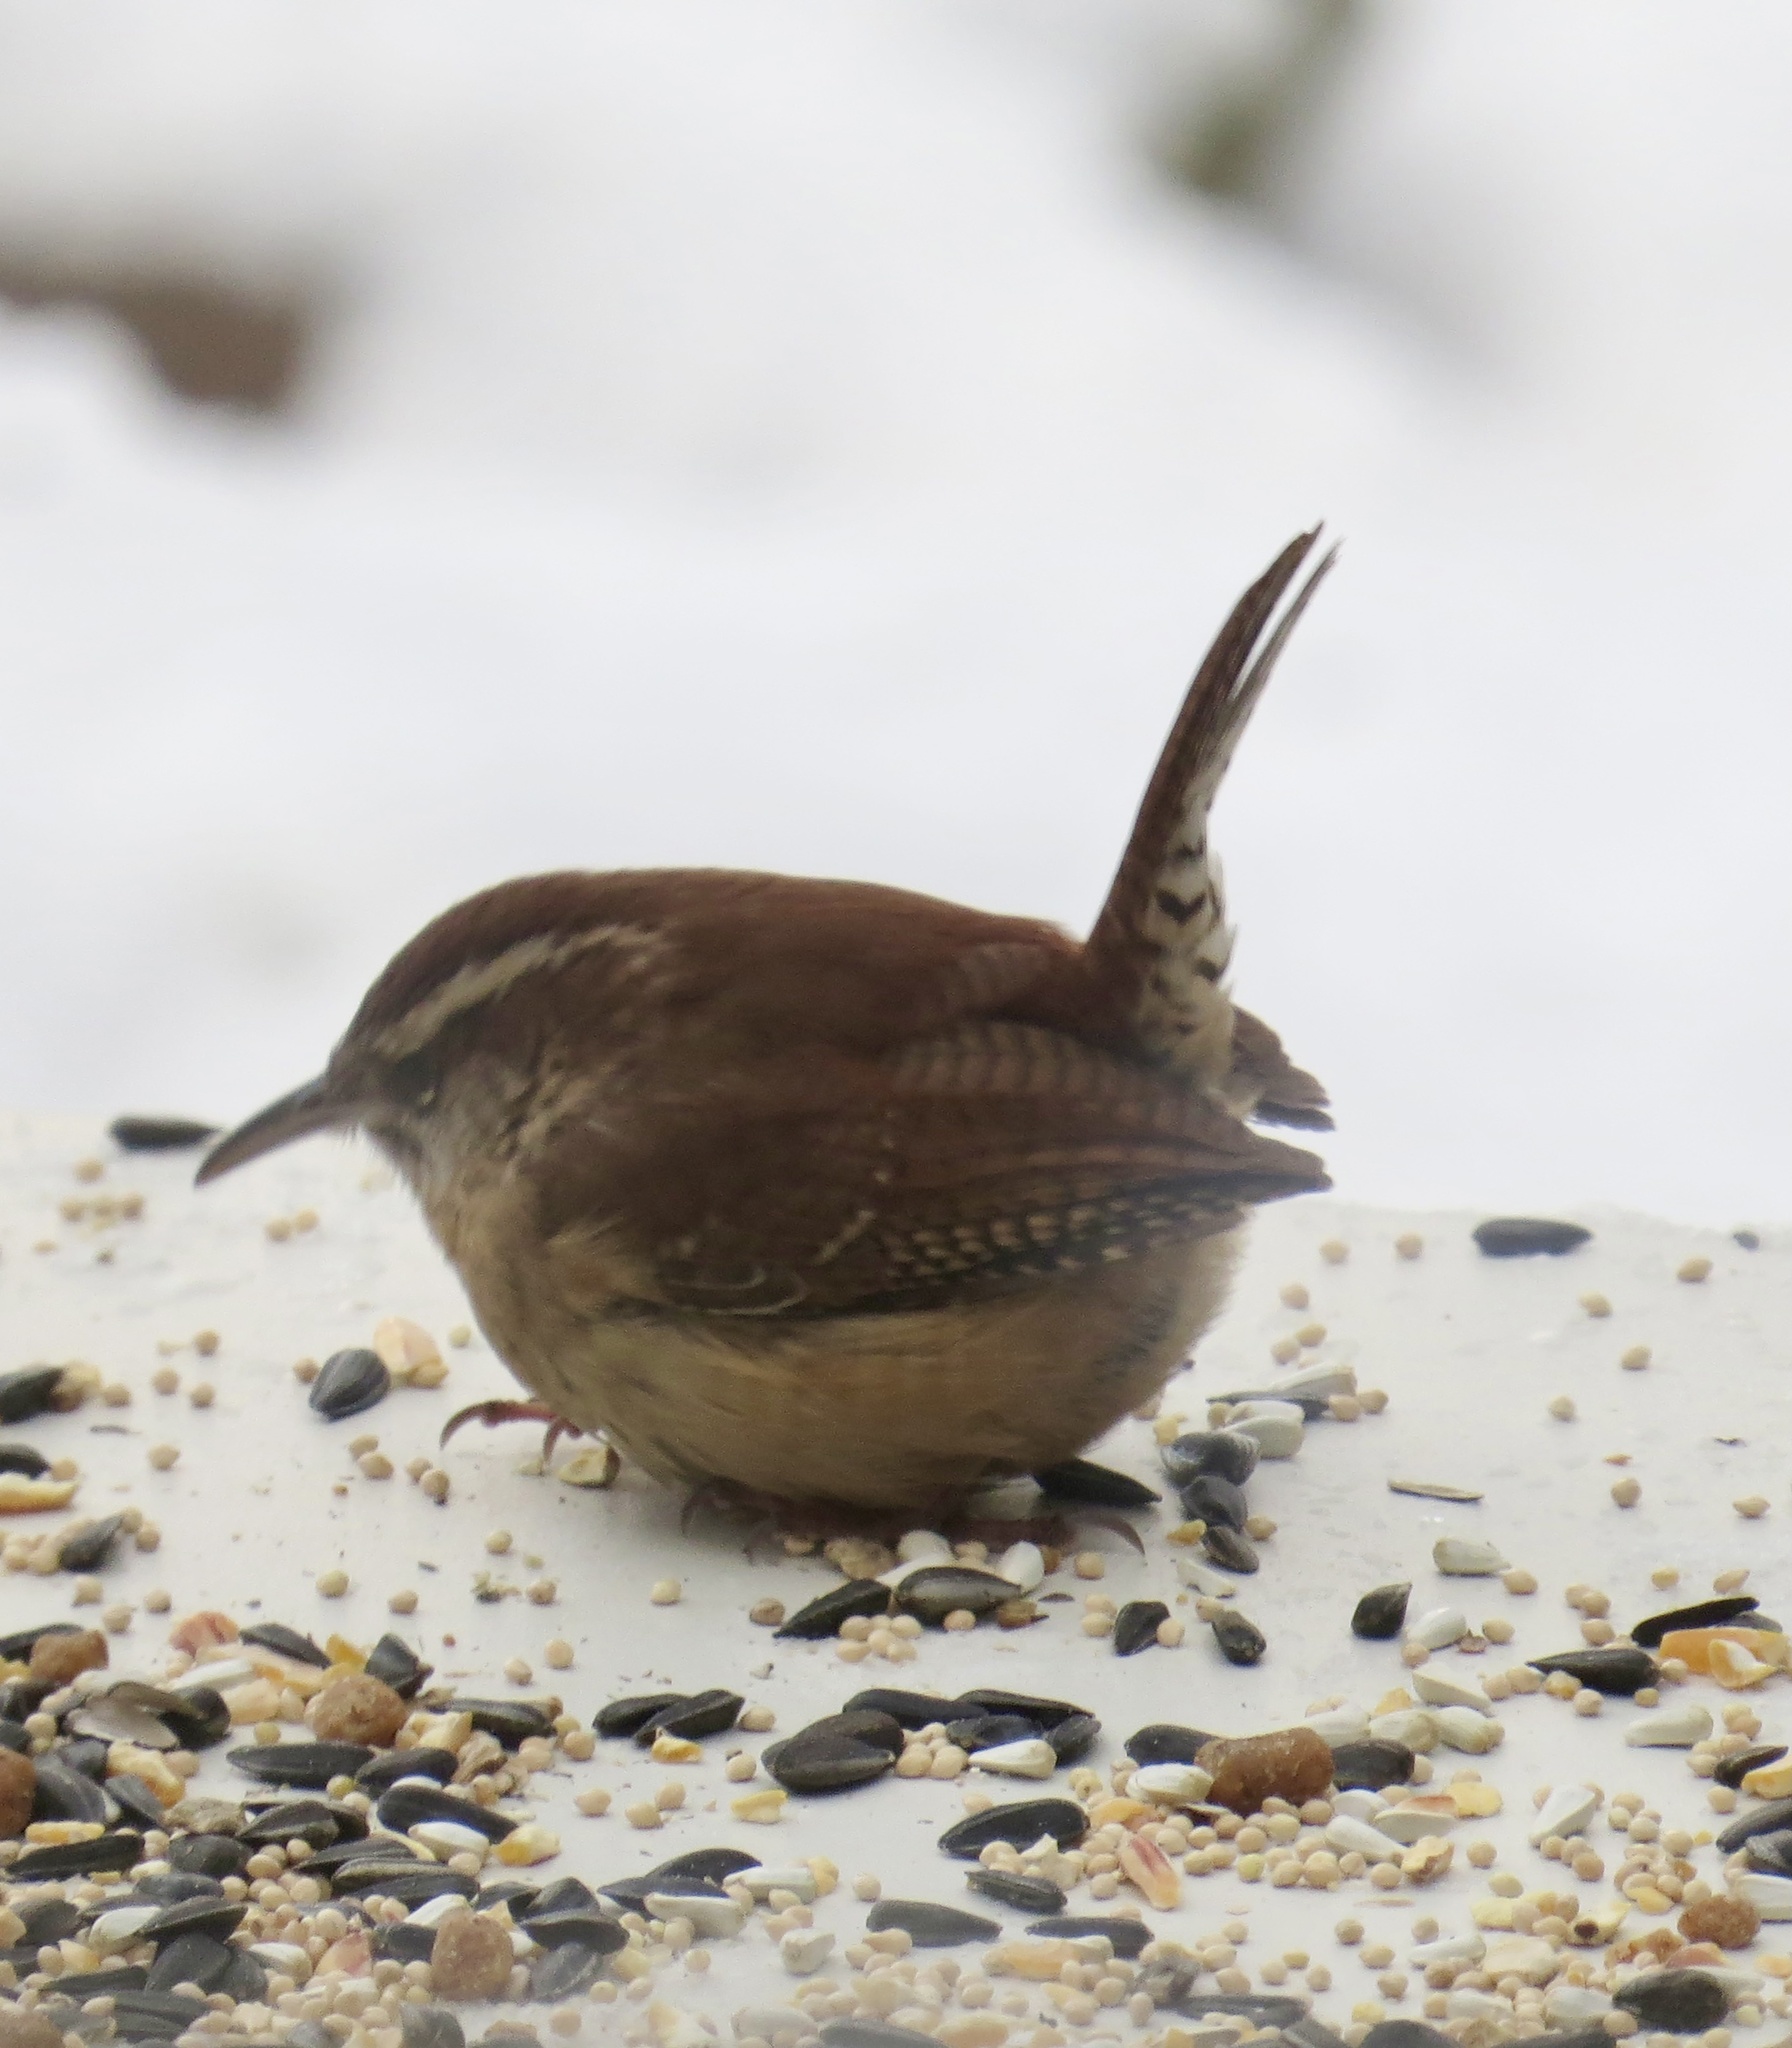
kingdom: Animalia
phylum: Chordata
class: Aves
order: Passeriformes
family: Troglodytidae
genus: Thryothorus
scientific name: Thryothorus ludovicianus
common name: Carolina wren
